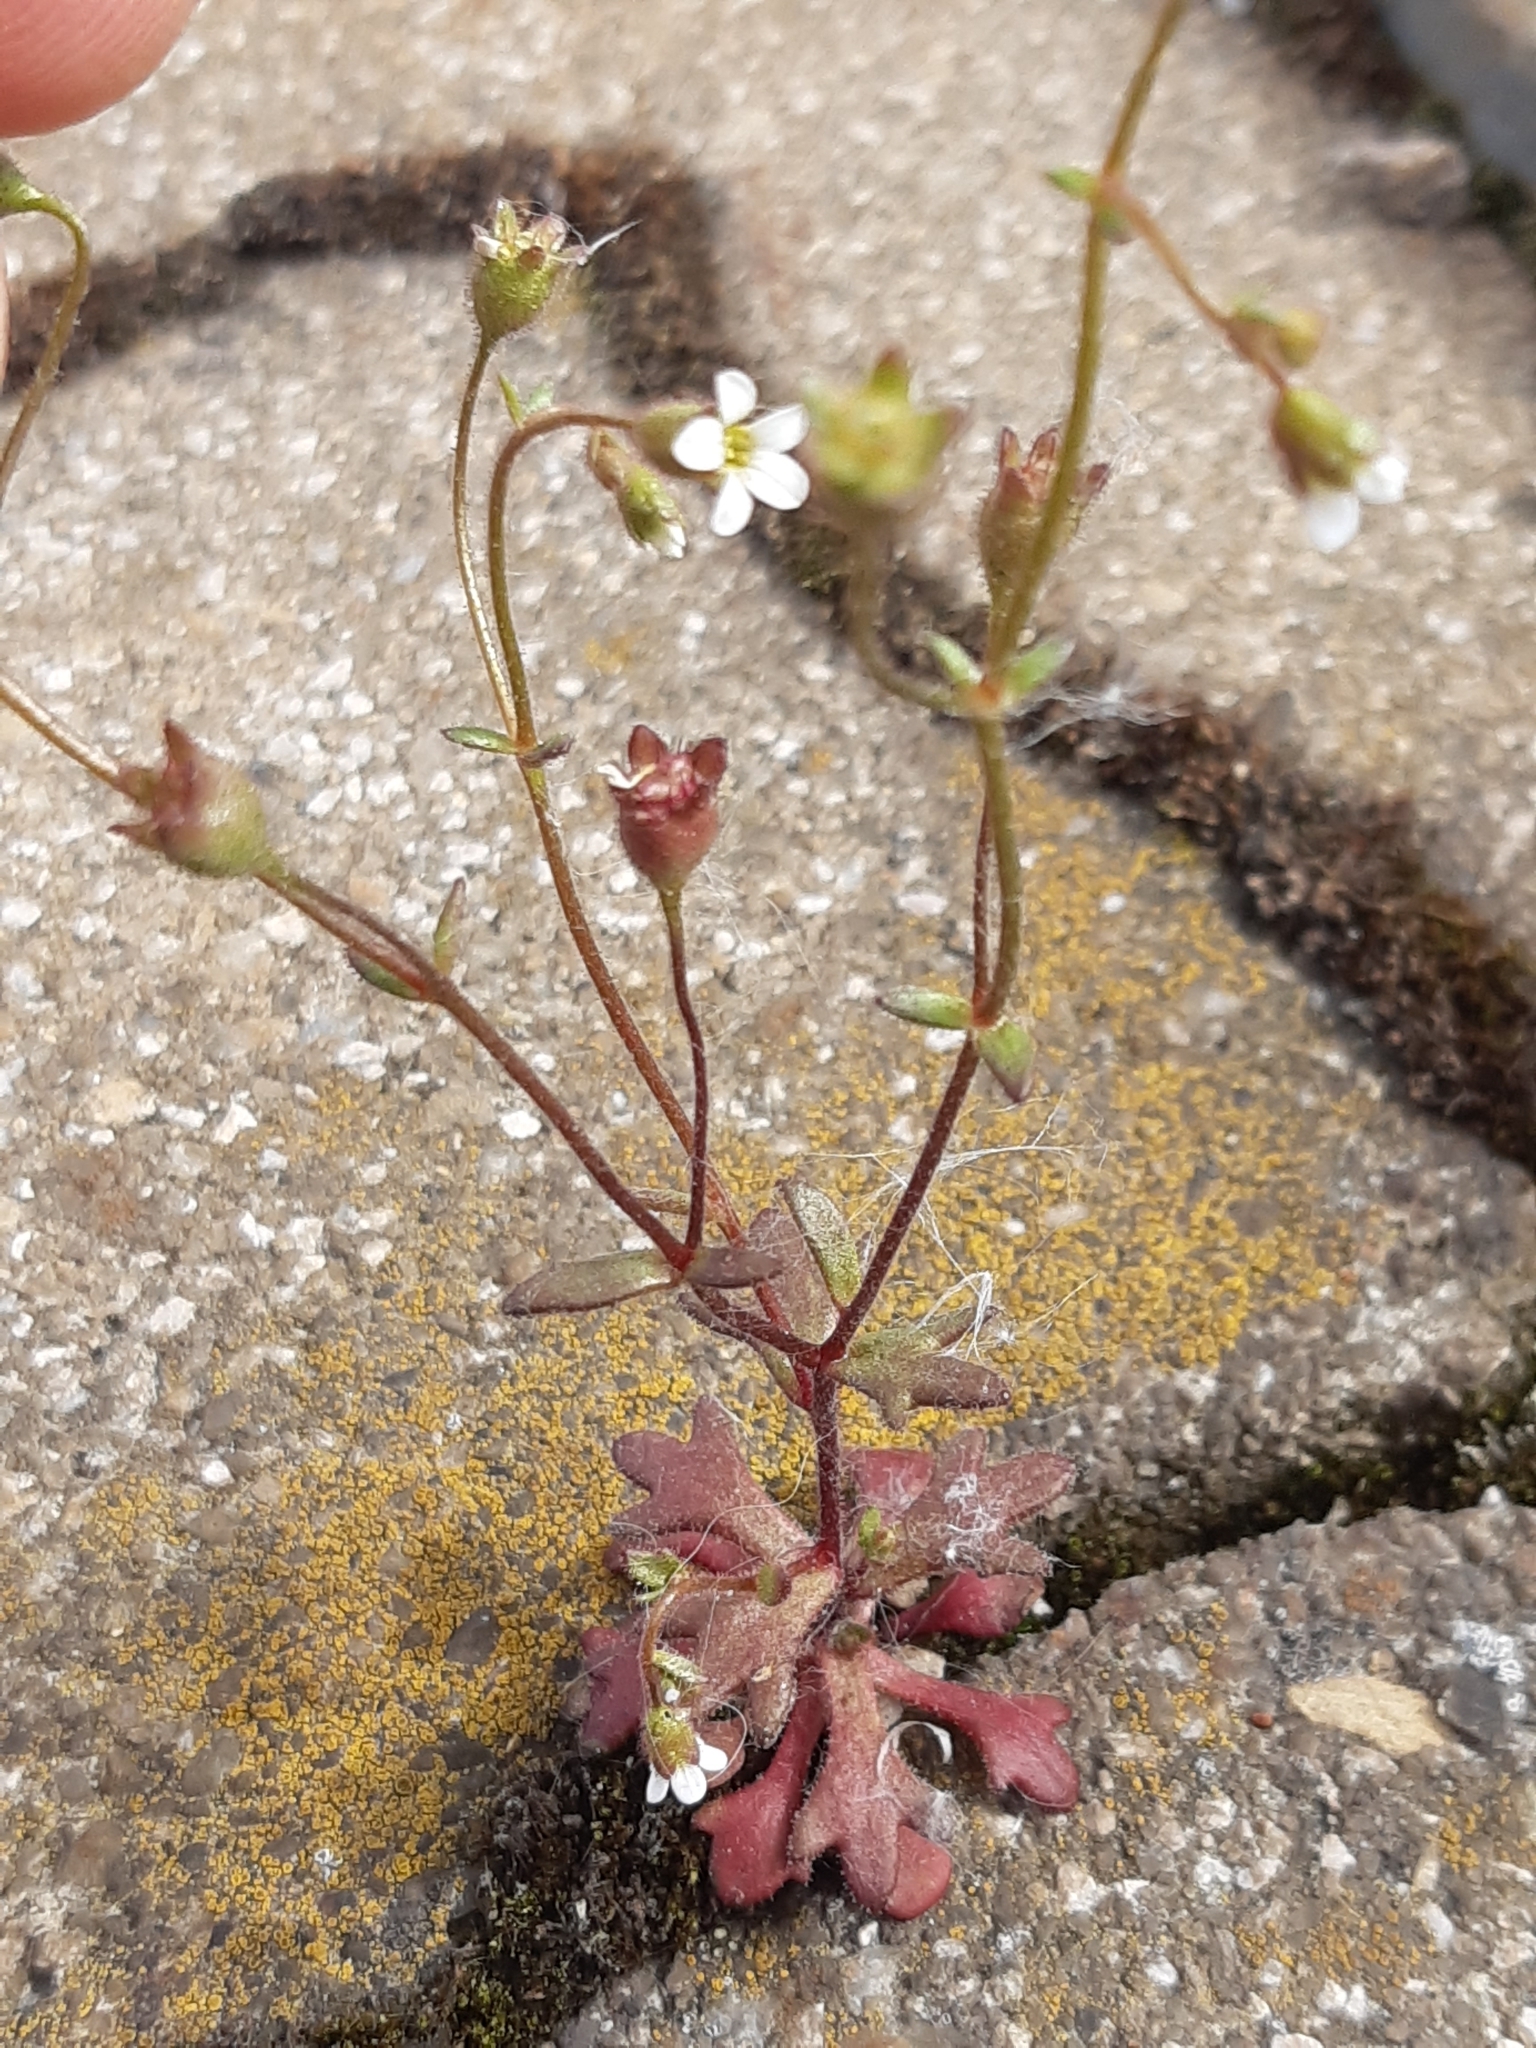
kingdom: Plantae
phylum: Tracheophyta
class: Magnoliopsida
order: Saxifragales
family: Saxifragaceae
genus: Saxifraga
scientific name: Saxifraga tridactylites
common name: Rue-leaved saxifrage
